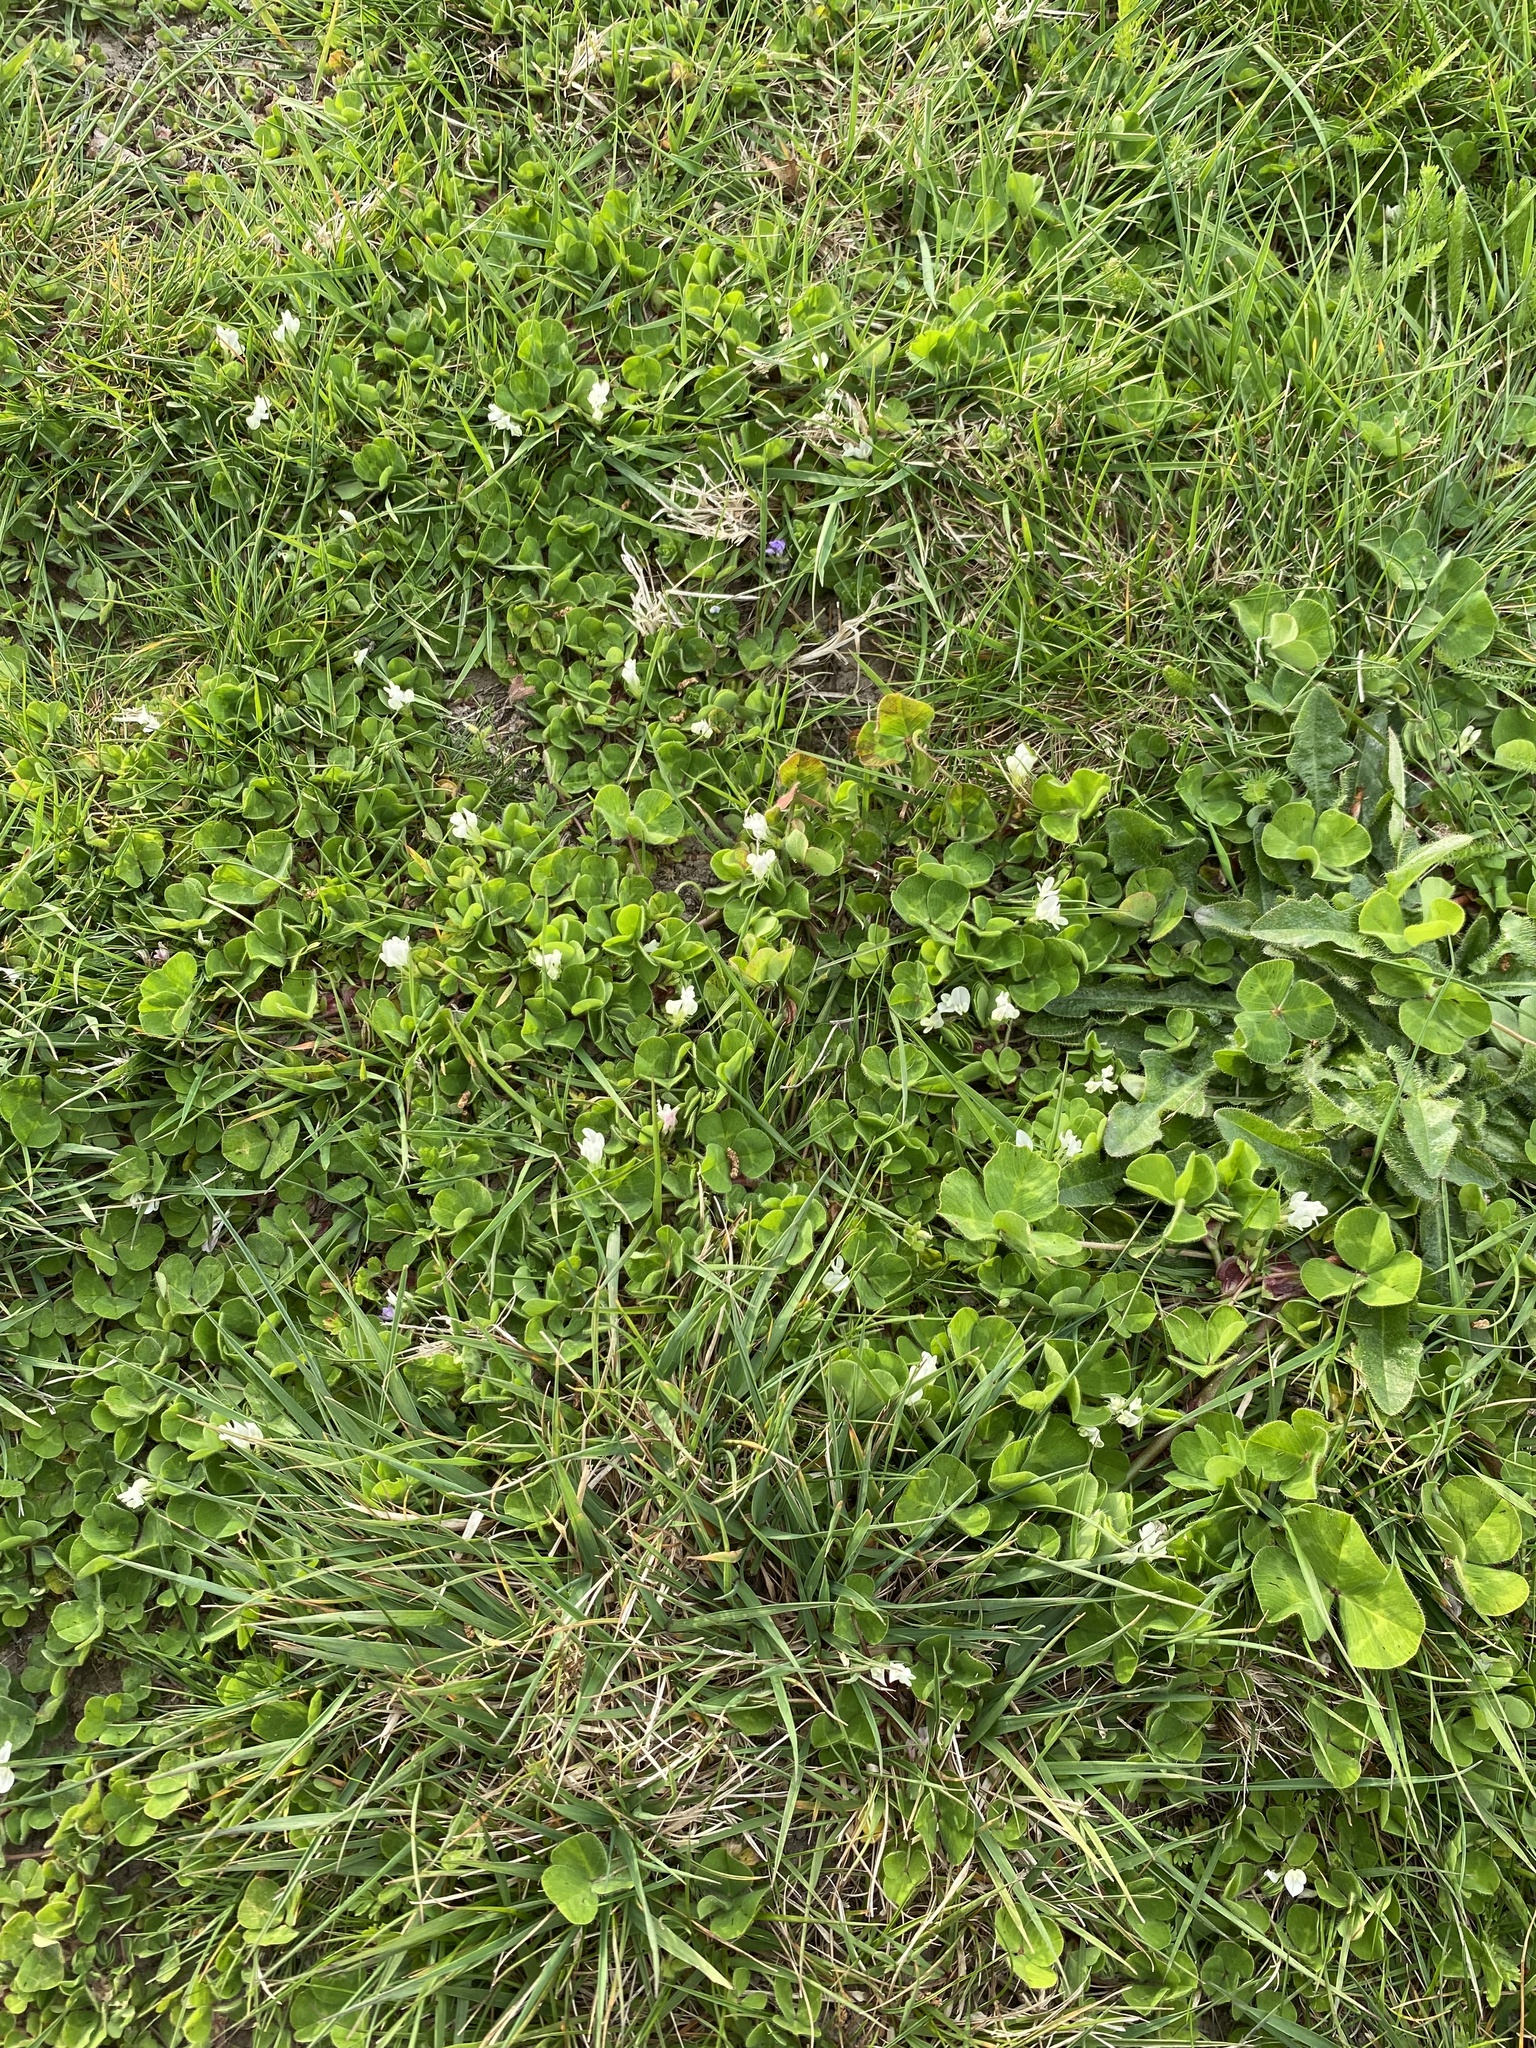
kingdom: Plantae
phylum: Tracheophyta
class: Magnoliopsida
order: Fabales
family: Fabaceae
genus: Trifolium
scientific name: Trifolium subterraneum
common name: Subterranean clover
